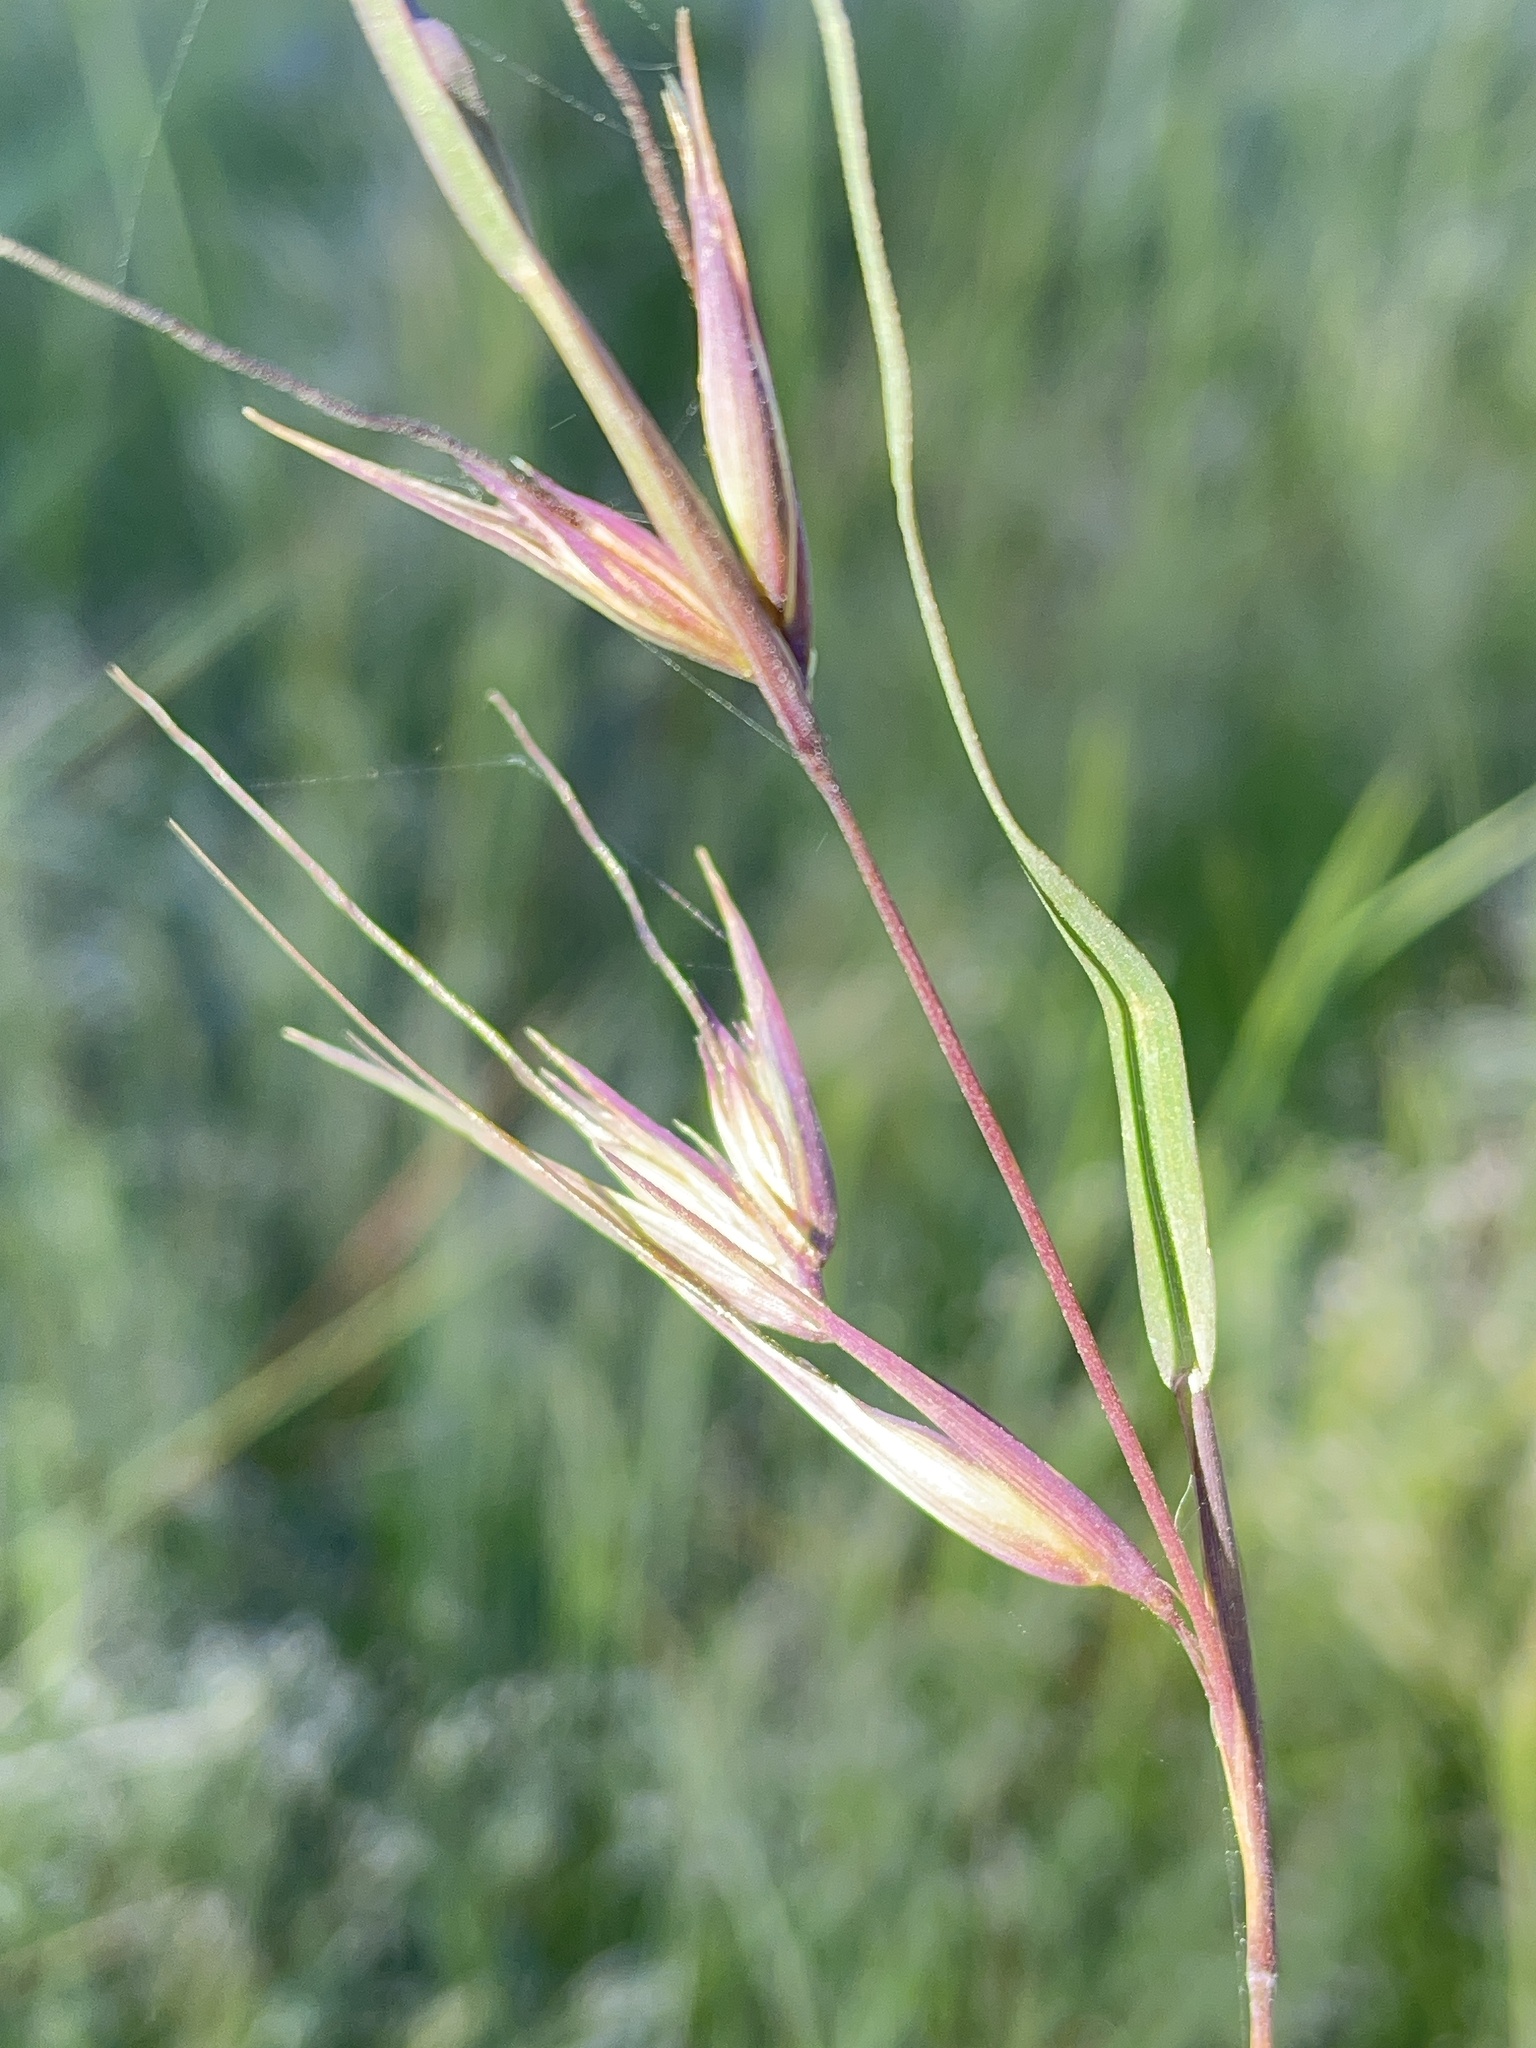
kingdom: Plantae
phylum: Tracheophyta
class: Liliopsida
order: Poales
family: Poaceae
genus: Themeda
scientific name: Themeda triandra
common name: Kangaroo grass
